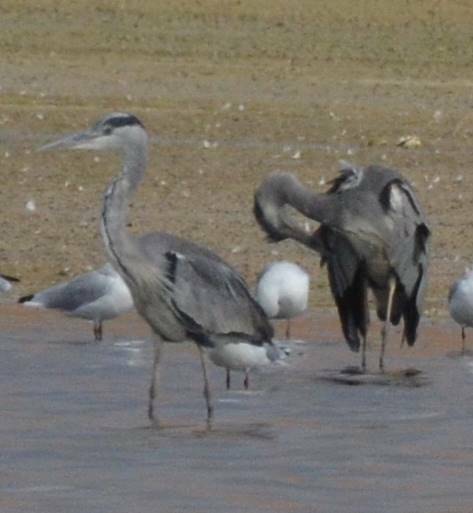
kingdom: Animalia
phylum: Chordata
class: Aves
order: Pelecaniformes
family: Ardeidae
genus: Ardea
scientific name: Ardea cinerea
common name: Grey heron
